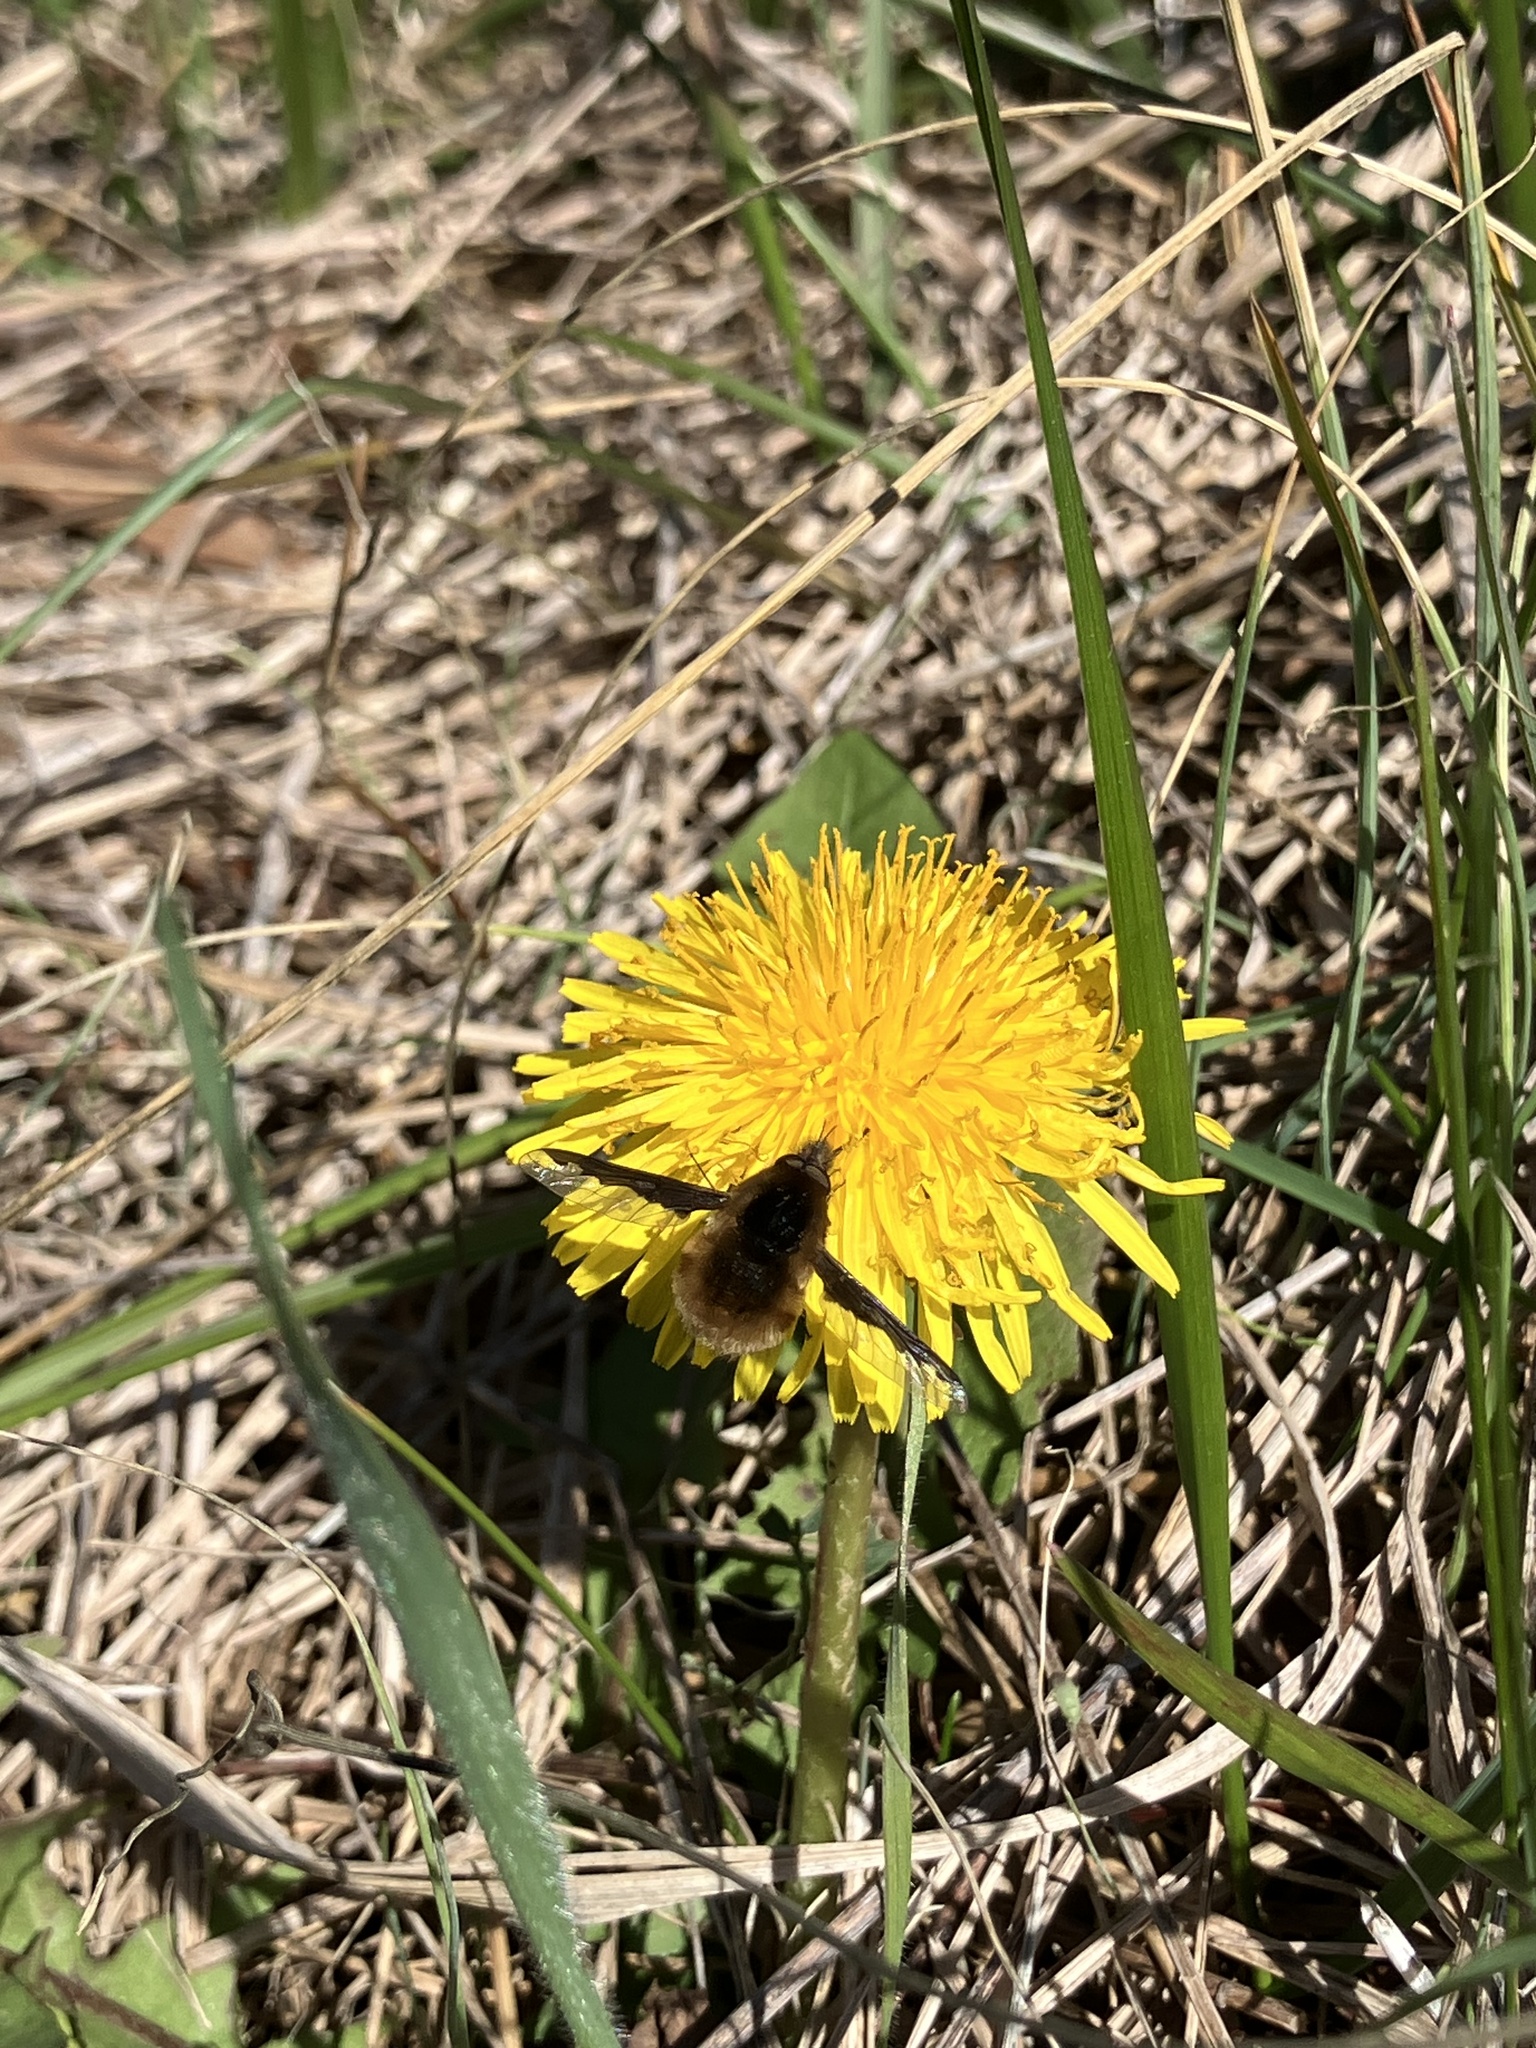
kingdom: Animalia
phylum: Arthropoda
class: Insecta
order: Diptera
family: Bombyliidae
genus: Bombylius
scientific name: Bombylius major
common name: Bee fly
